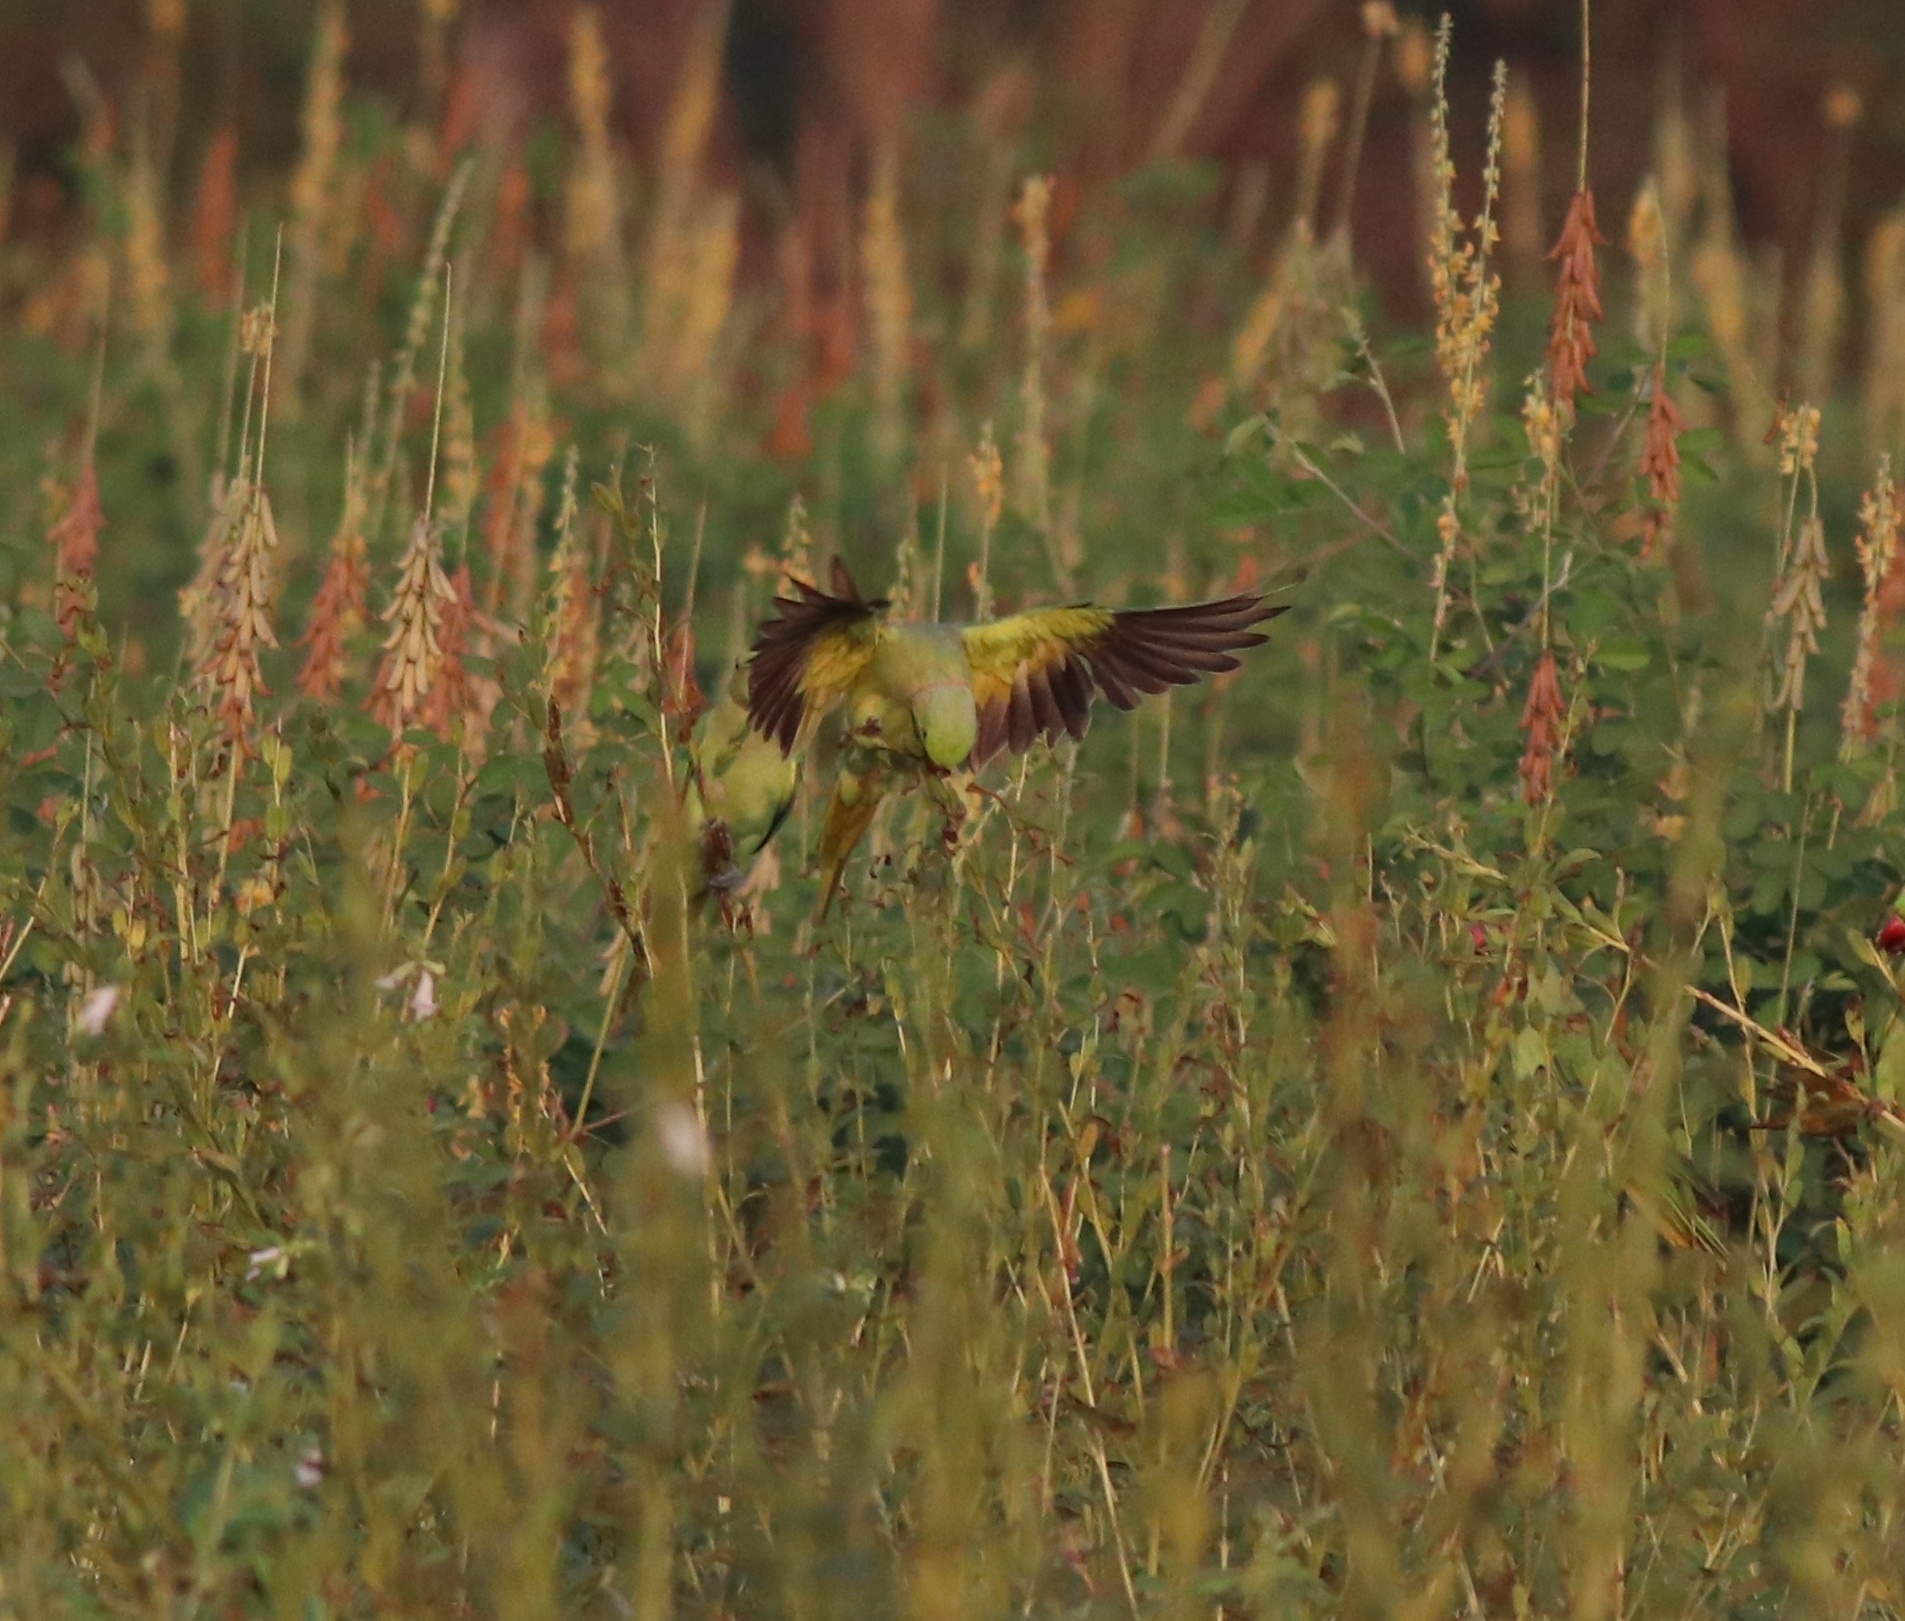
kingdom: Animalia
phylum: Chordata
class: Aves
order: Psittaciformes
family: Psittacidae
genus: Psittacula
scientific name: Psittacula krameri
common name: Rose-ringed parakeet
